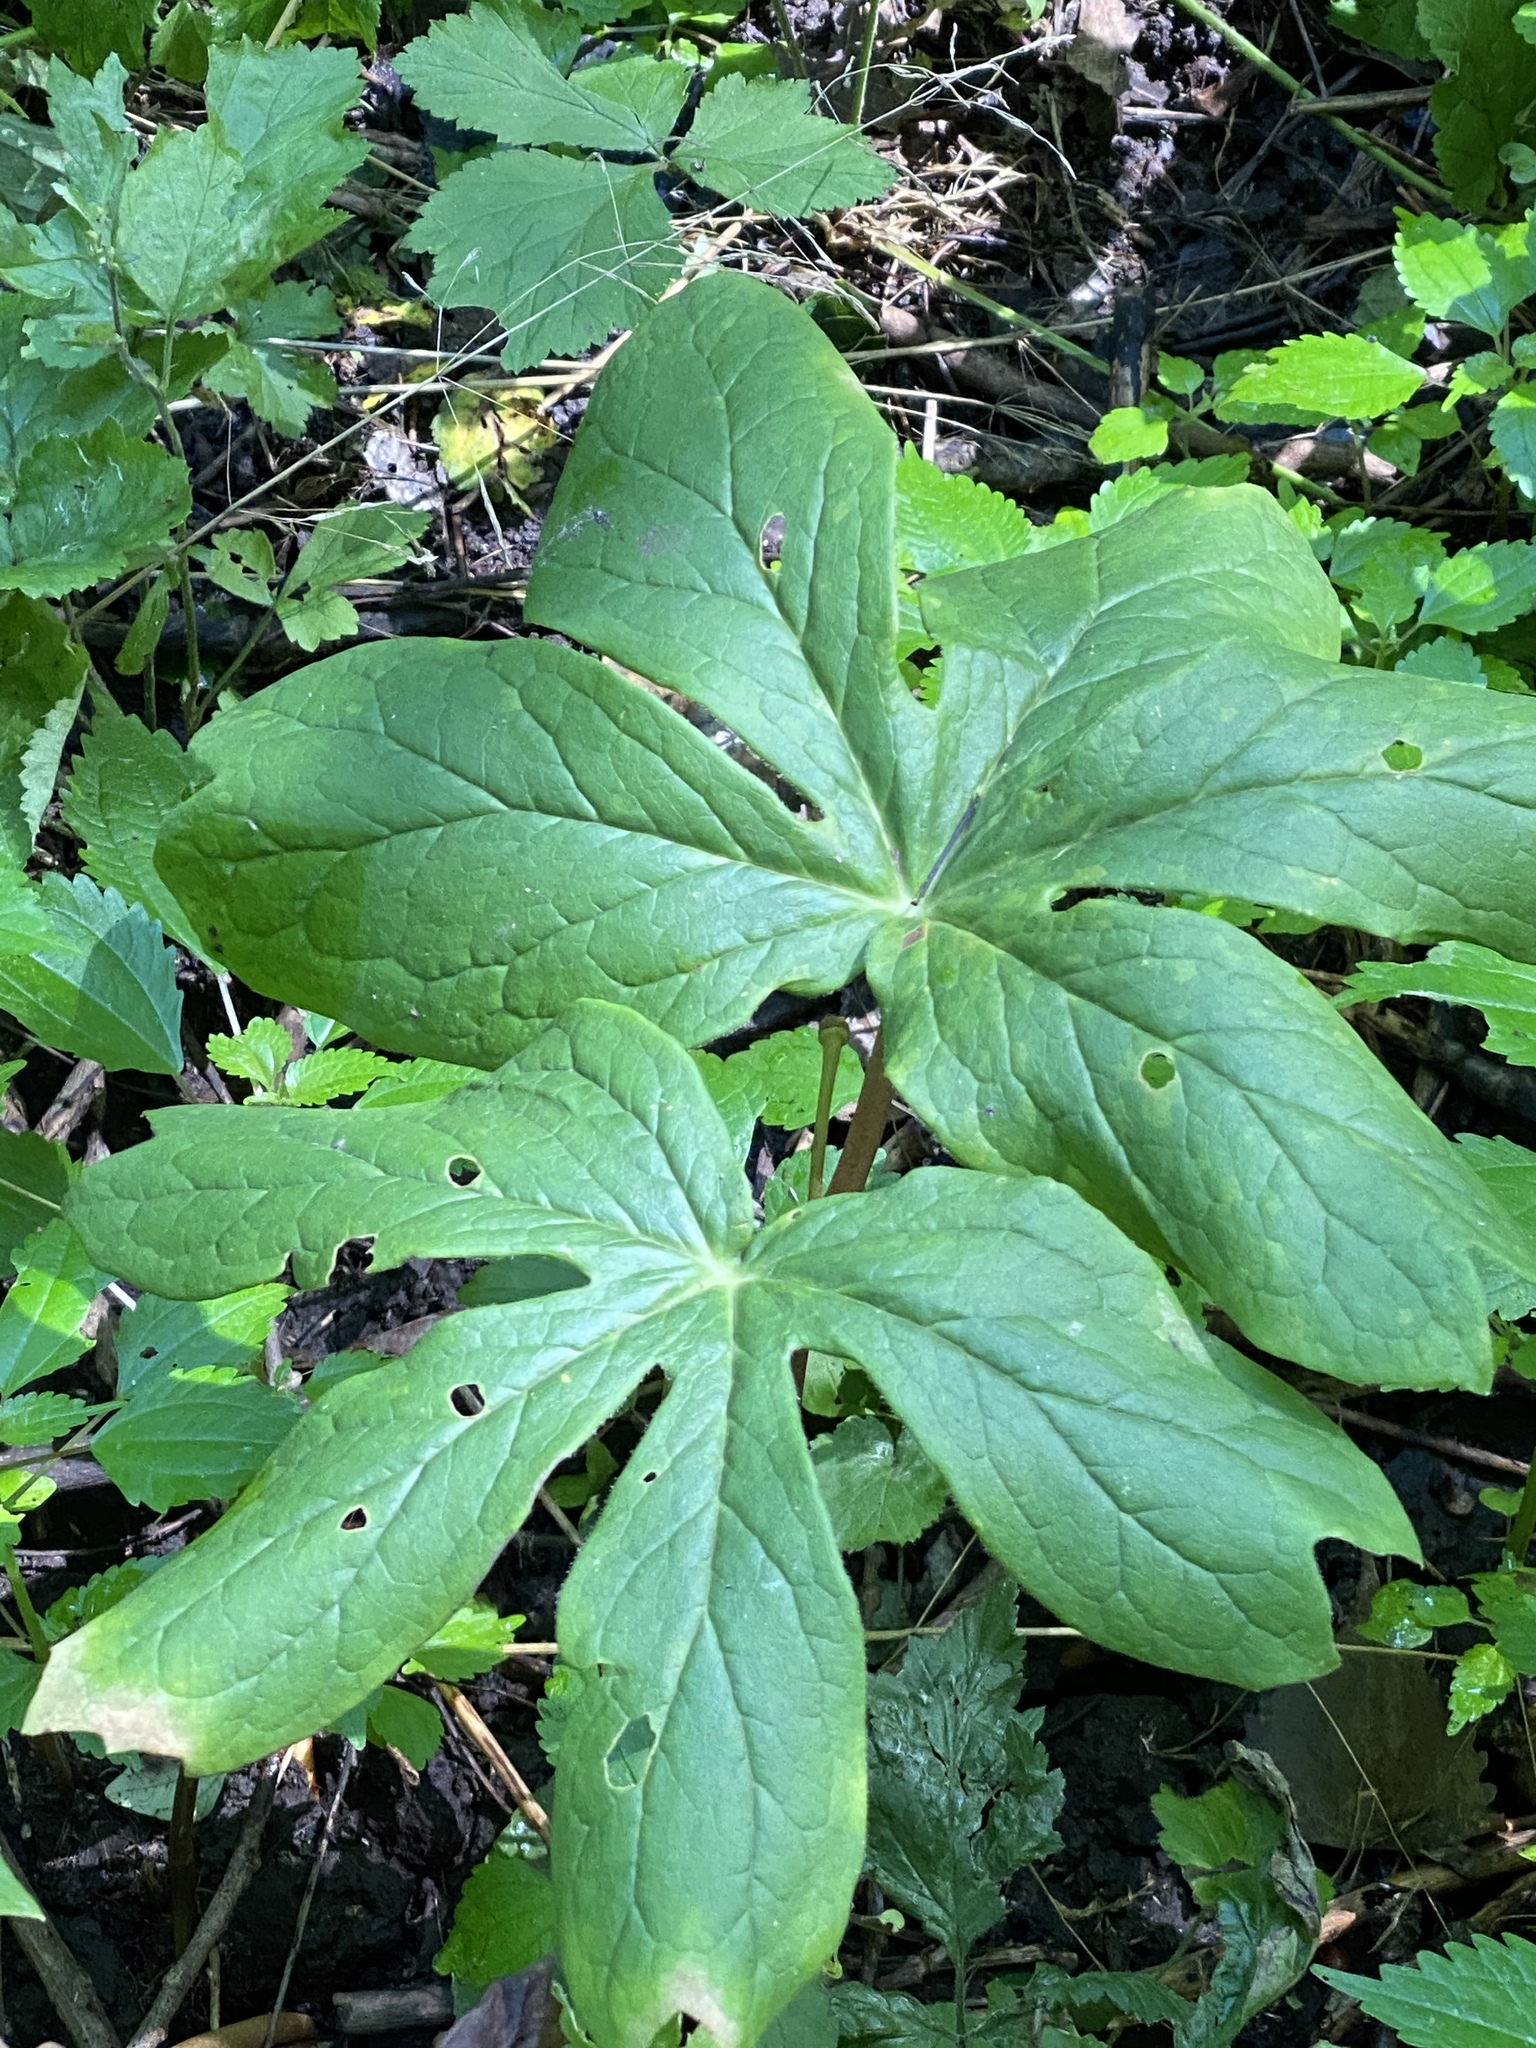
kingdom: Plantae
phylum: Tracheophyta
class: Magnoliopsida
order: Ranunculales
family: Berberidaceae
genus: Podophyllum
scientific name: Podophyllum peltatum
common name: Wild mandrake
